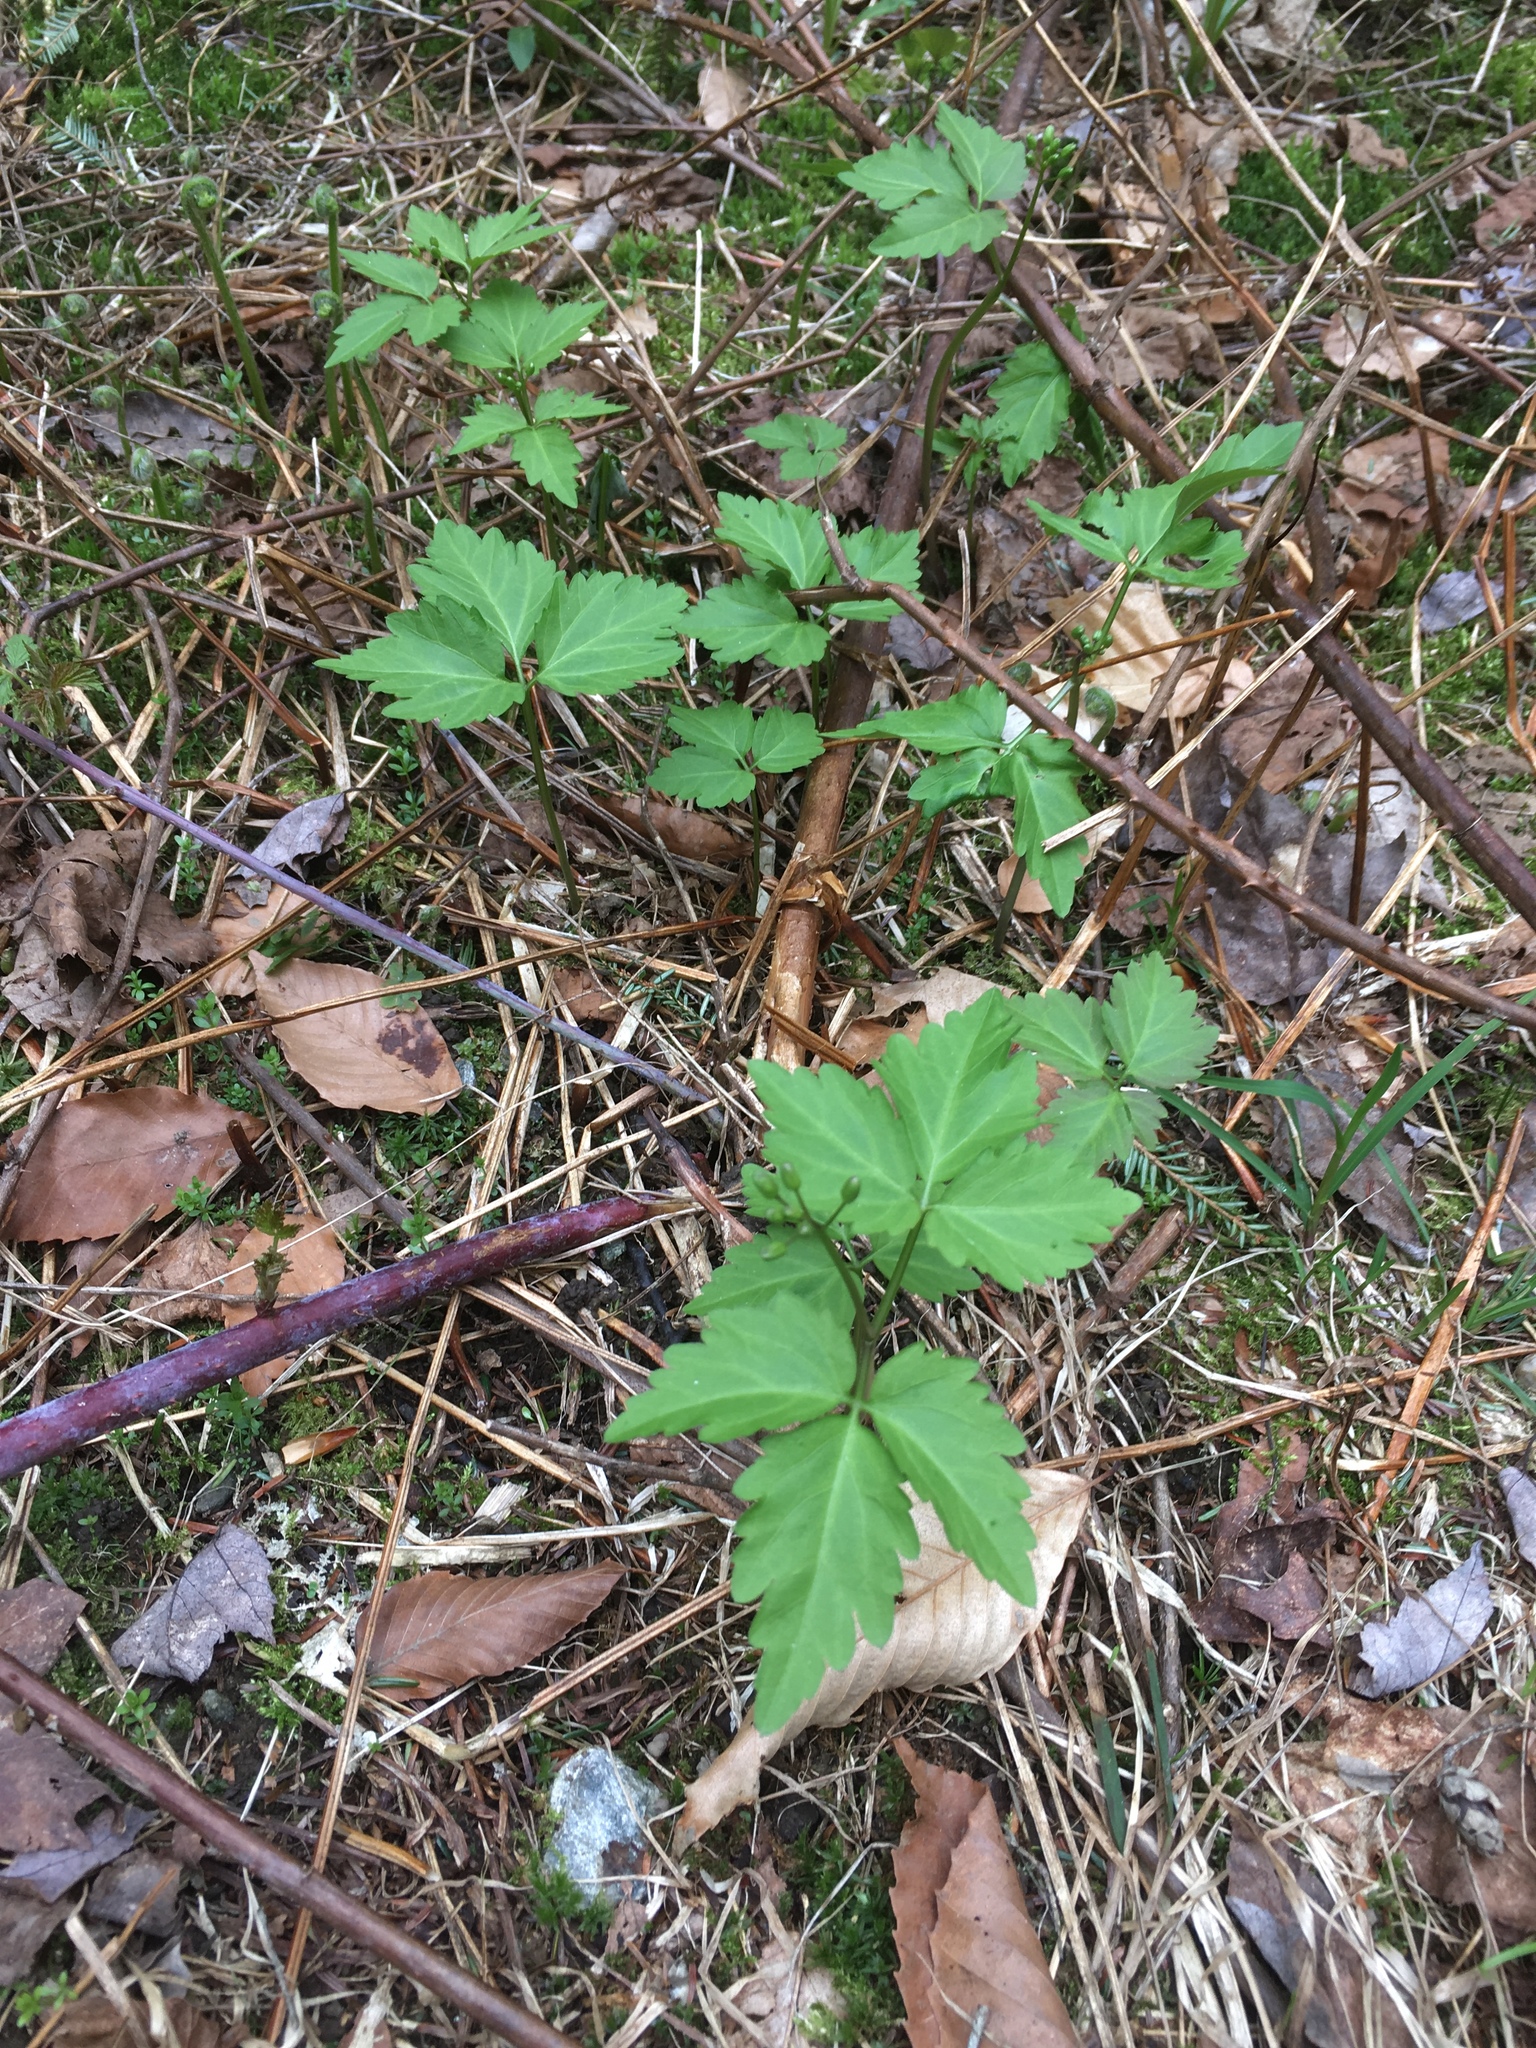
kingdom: Plantae
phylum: Tracheophyta
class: Magnoliopsida
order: Brassicales
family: Brassicaceae
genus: Cardamine
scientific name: Cardamine diphylla
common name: Broad-leaved toothwort
